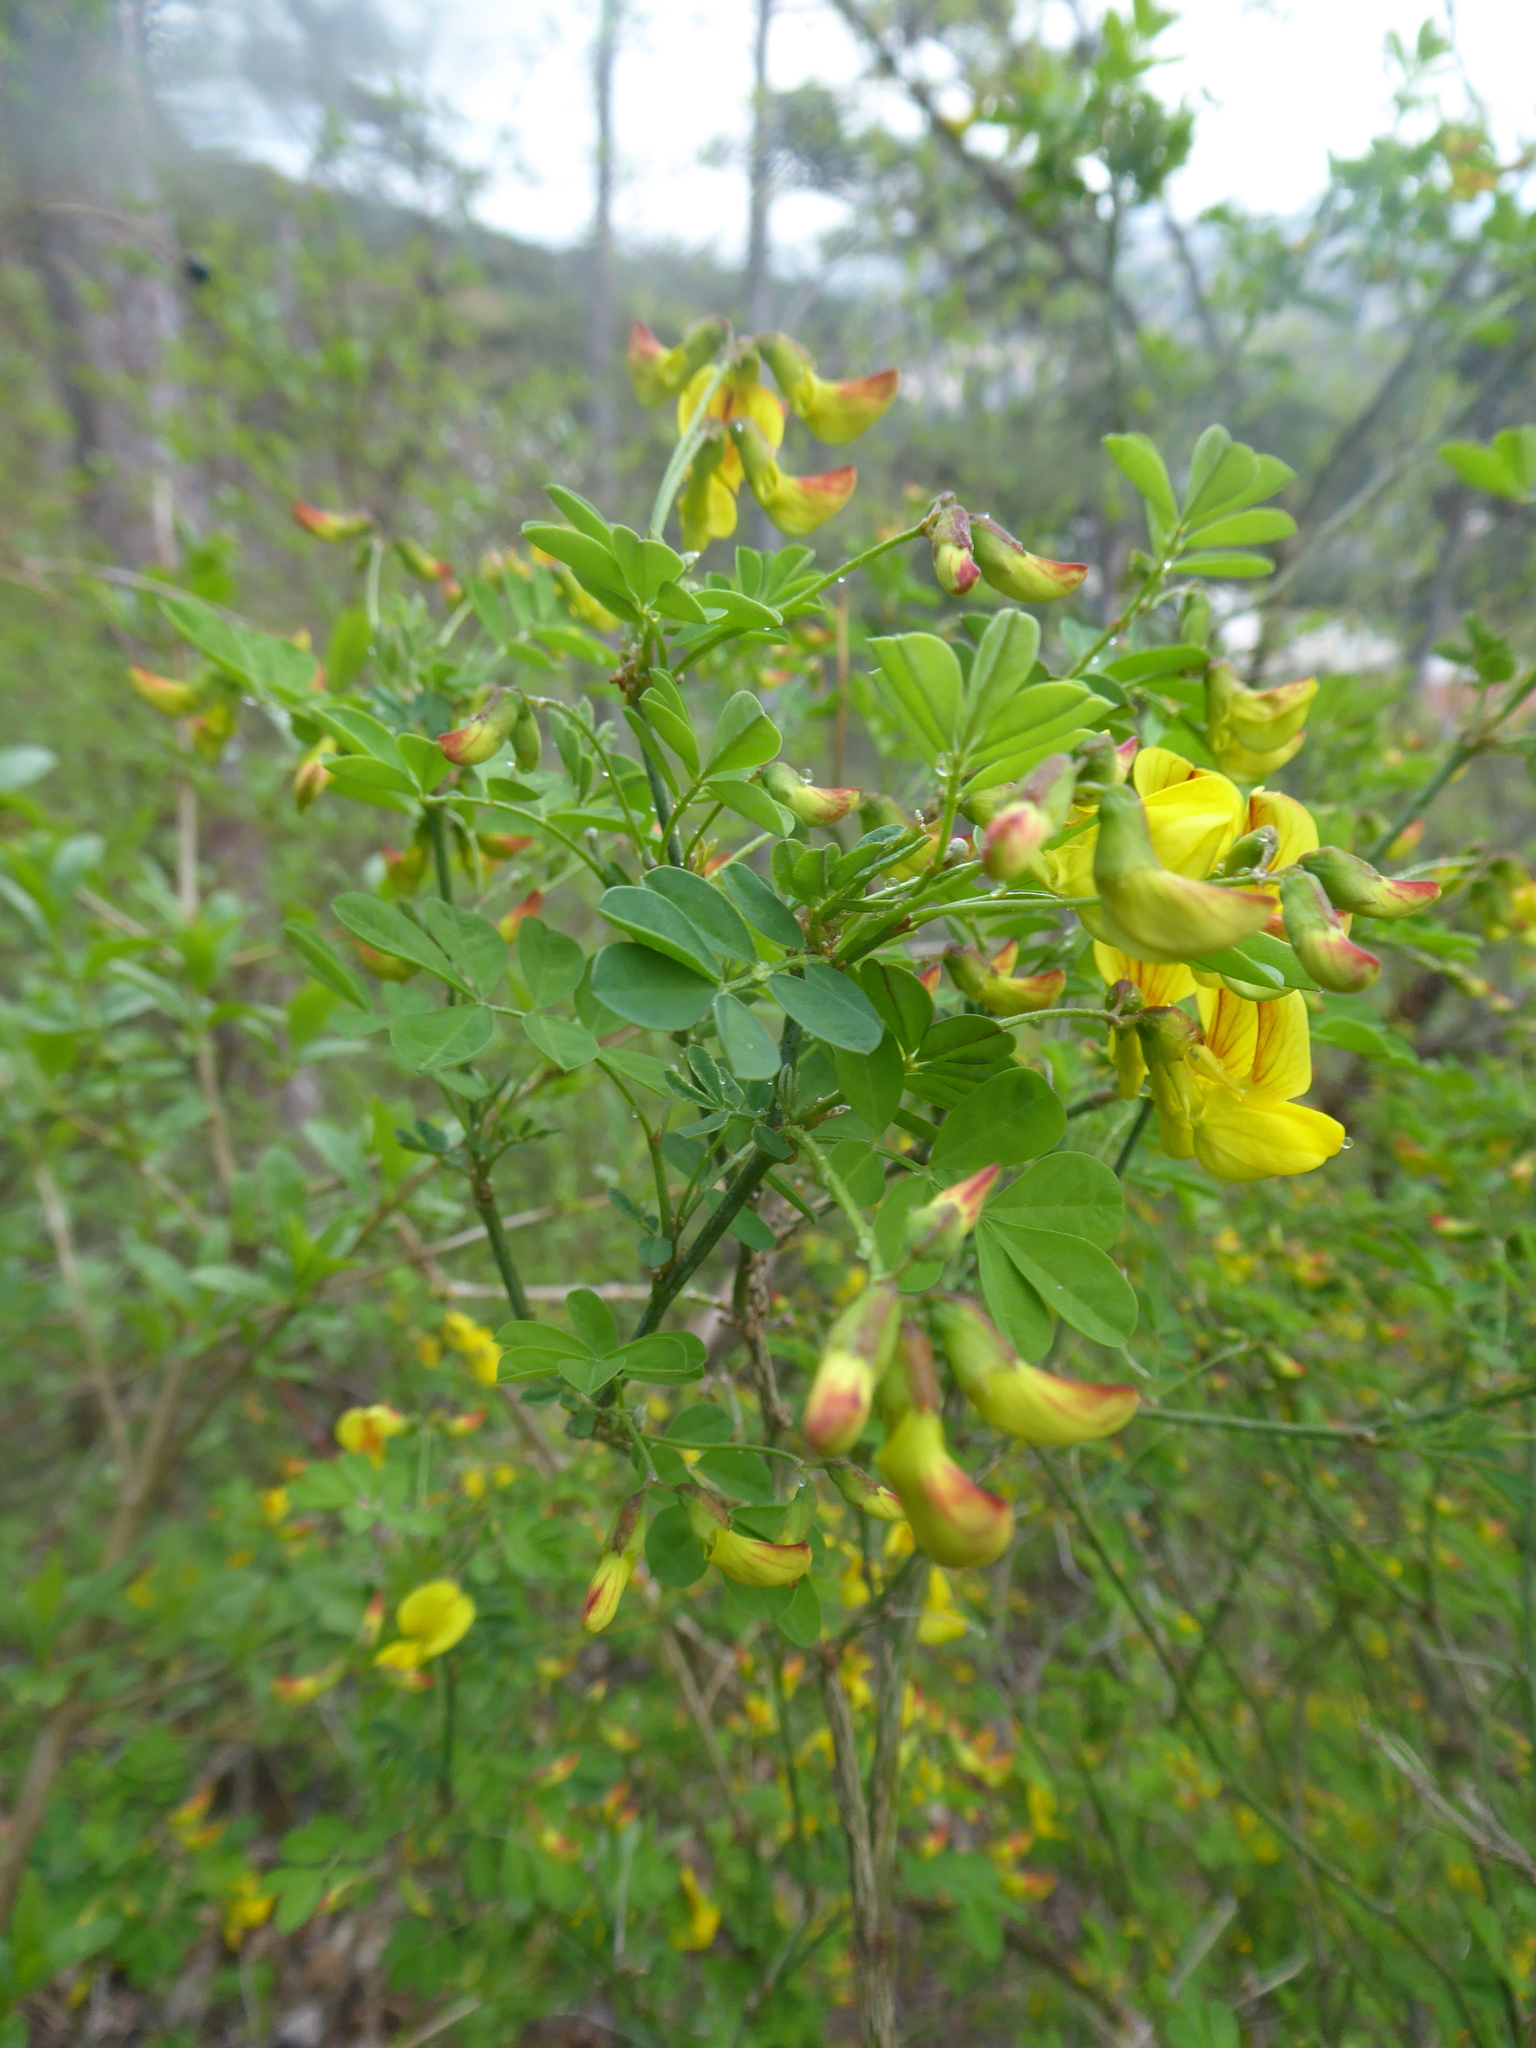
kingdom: Plantae
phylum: Tracheophyta
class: Magnoliopsida
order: Fabales
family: Fabaceae
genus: Hippocrepis
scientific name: Hippocrepis emerus
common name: Scorpion senna
